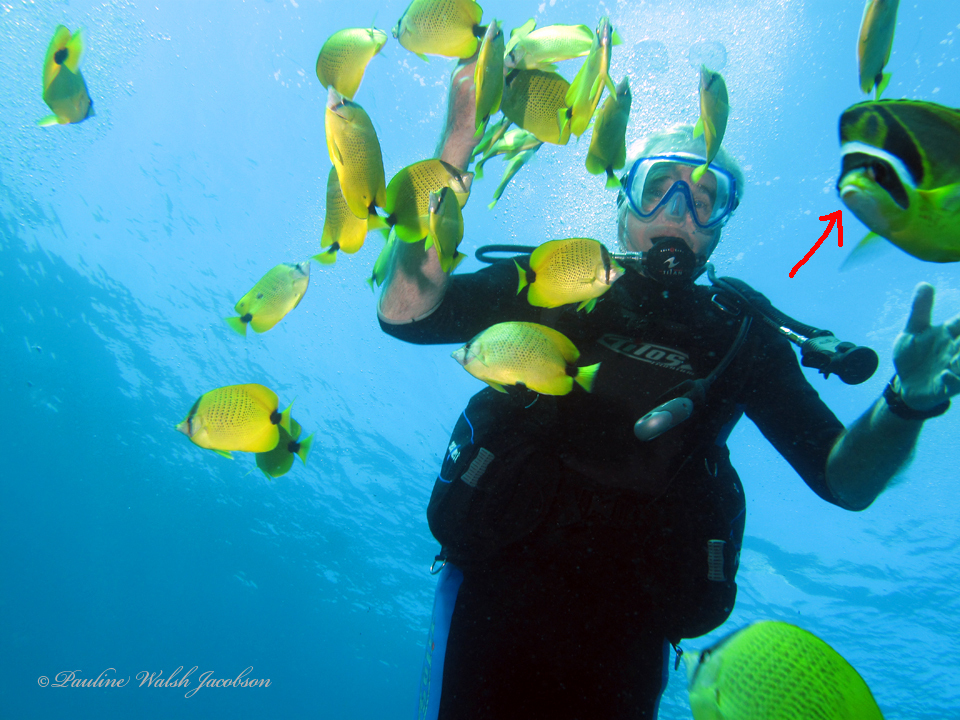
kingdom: Animalia
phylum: Chordata
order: Perciformes
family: Chaetodontidae
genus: Chaetodon
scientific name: Chaetodon lunula
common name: Raccoon butterflyfish
